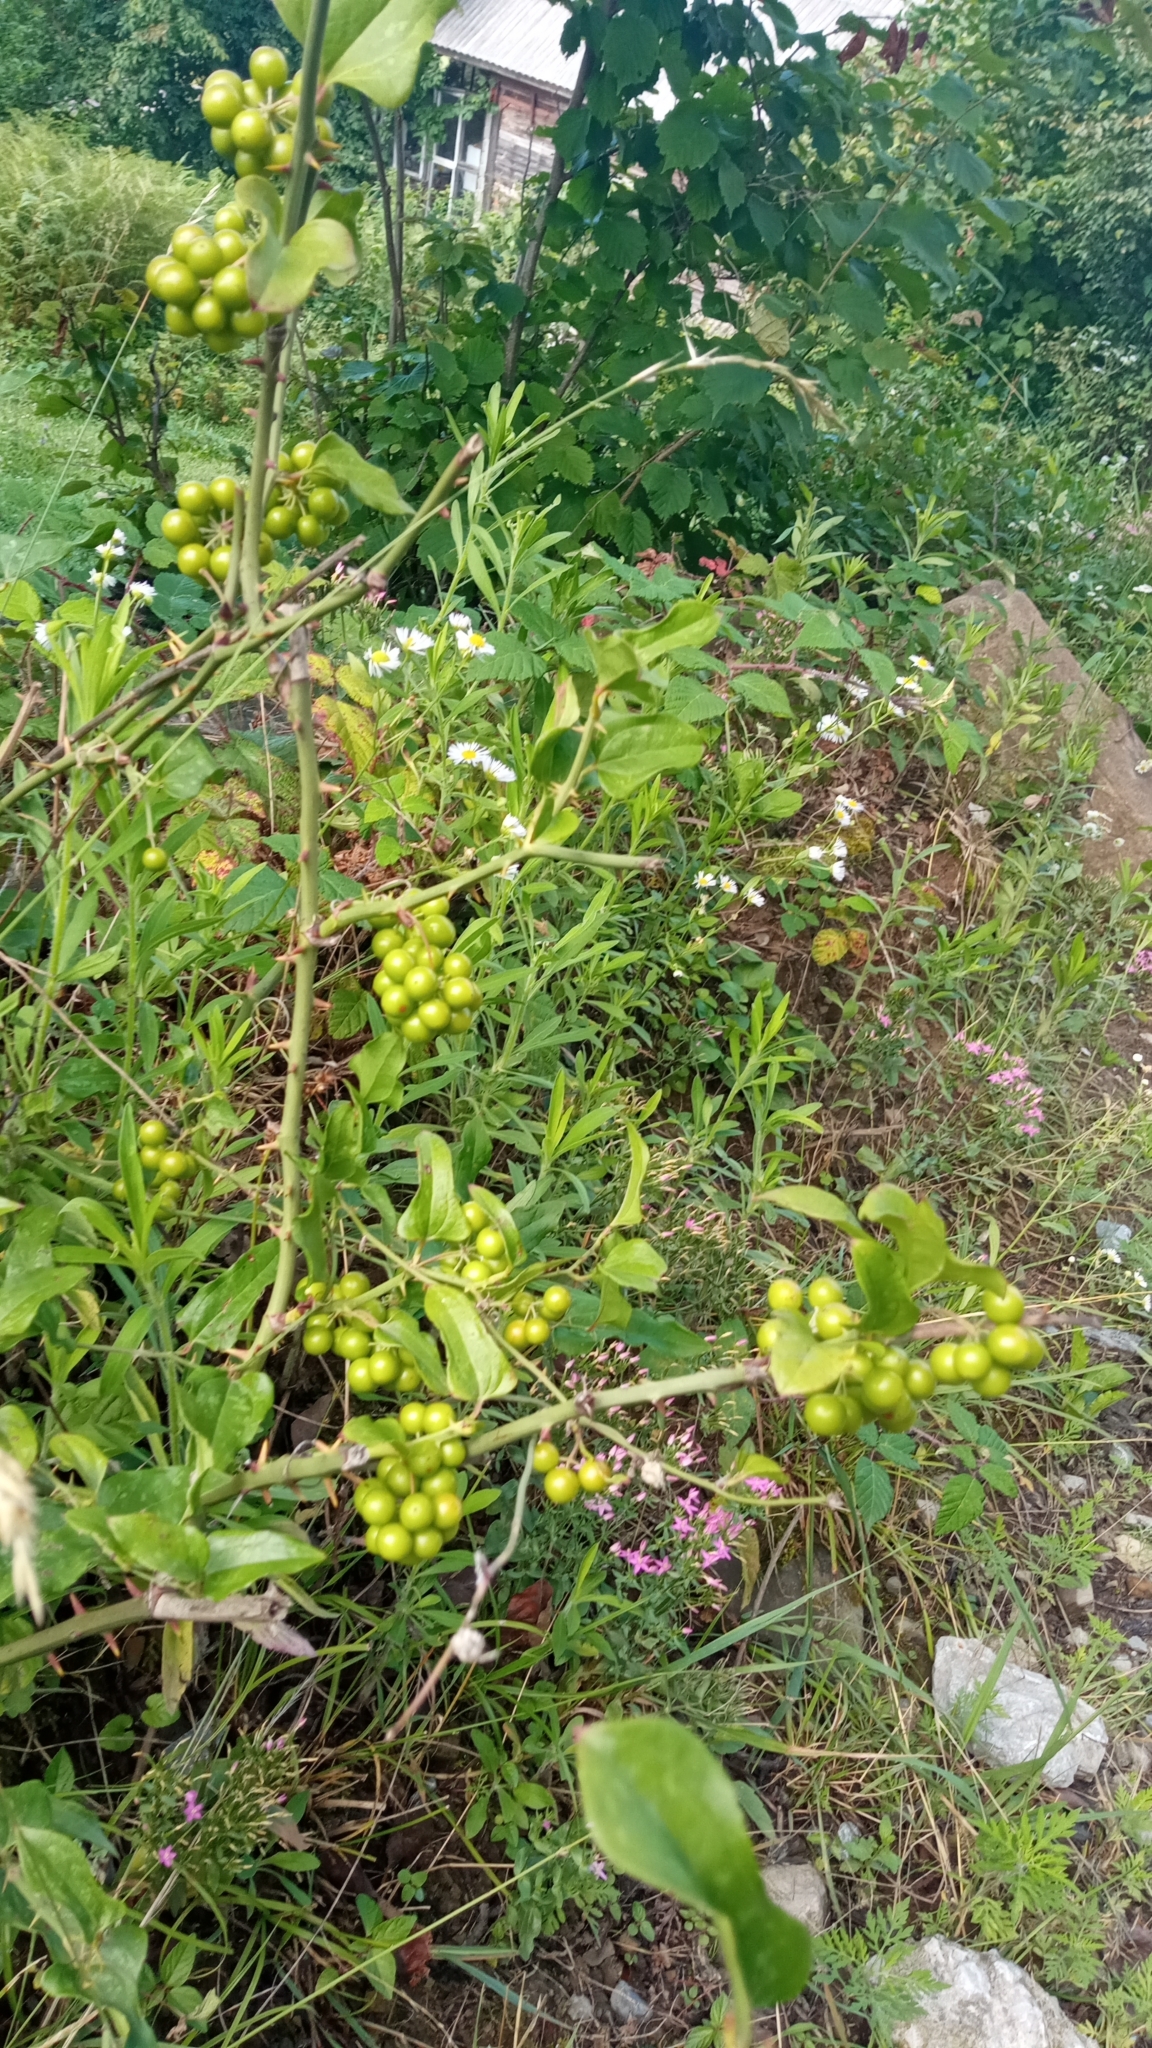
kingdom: Plantae
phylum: Tracheophyta
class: Liliopsida
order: Liliales
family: Smilacaceae
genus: Smilax
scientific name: Smilax excelsa
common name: Larger smilax
